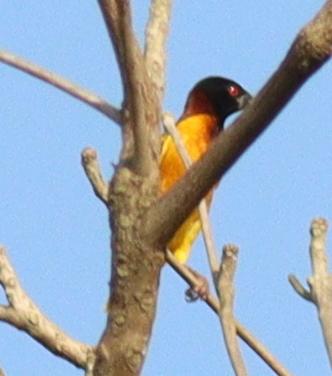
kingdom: Animalia
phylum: Chordata
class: Aves
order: Passeriformes
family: Ploceidae
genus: Ploceus
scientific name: Ploceus cucullatus
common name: Village weaver
